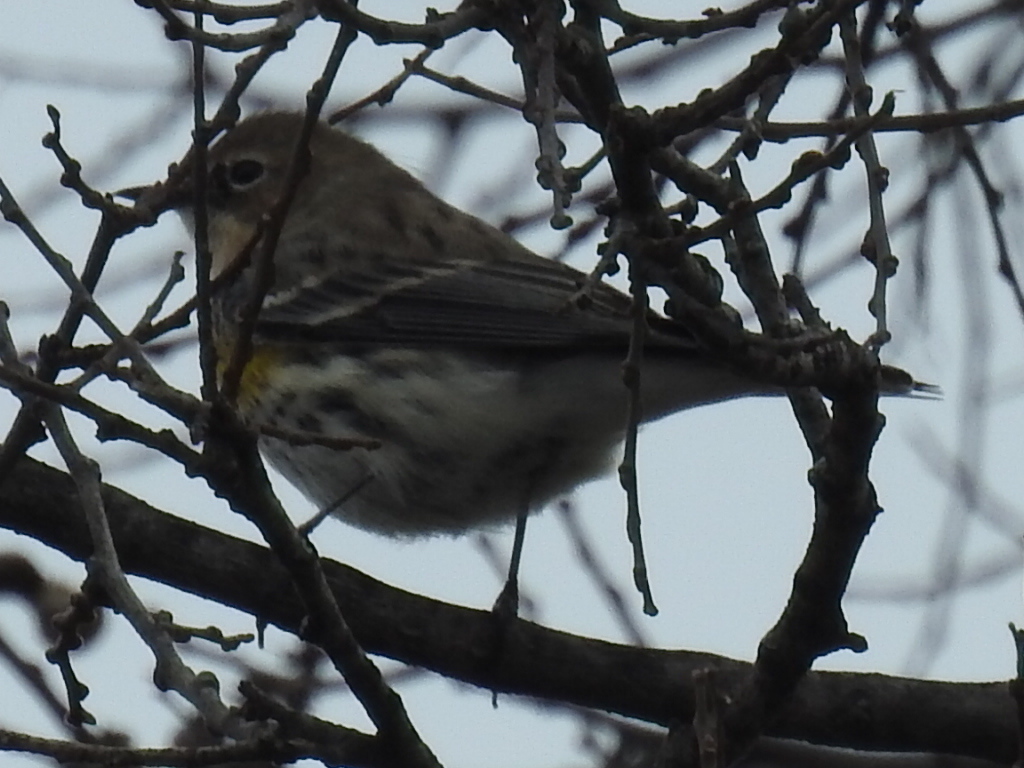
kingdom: Animalia
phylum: Chordata
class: Aves
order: Passeriformes
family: Parulidae
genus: Setophaga
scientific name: Setophaga coronata
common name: Myrtle warbler
